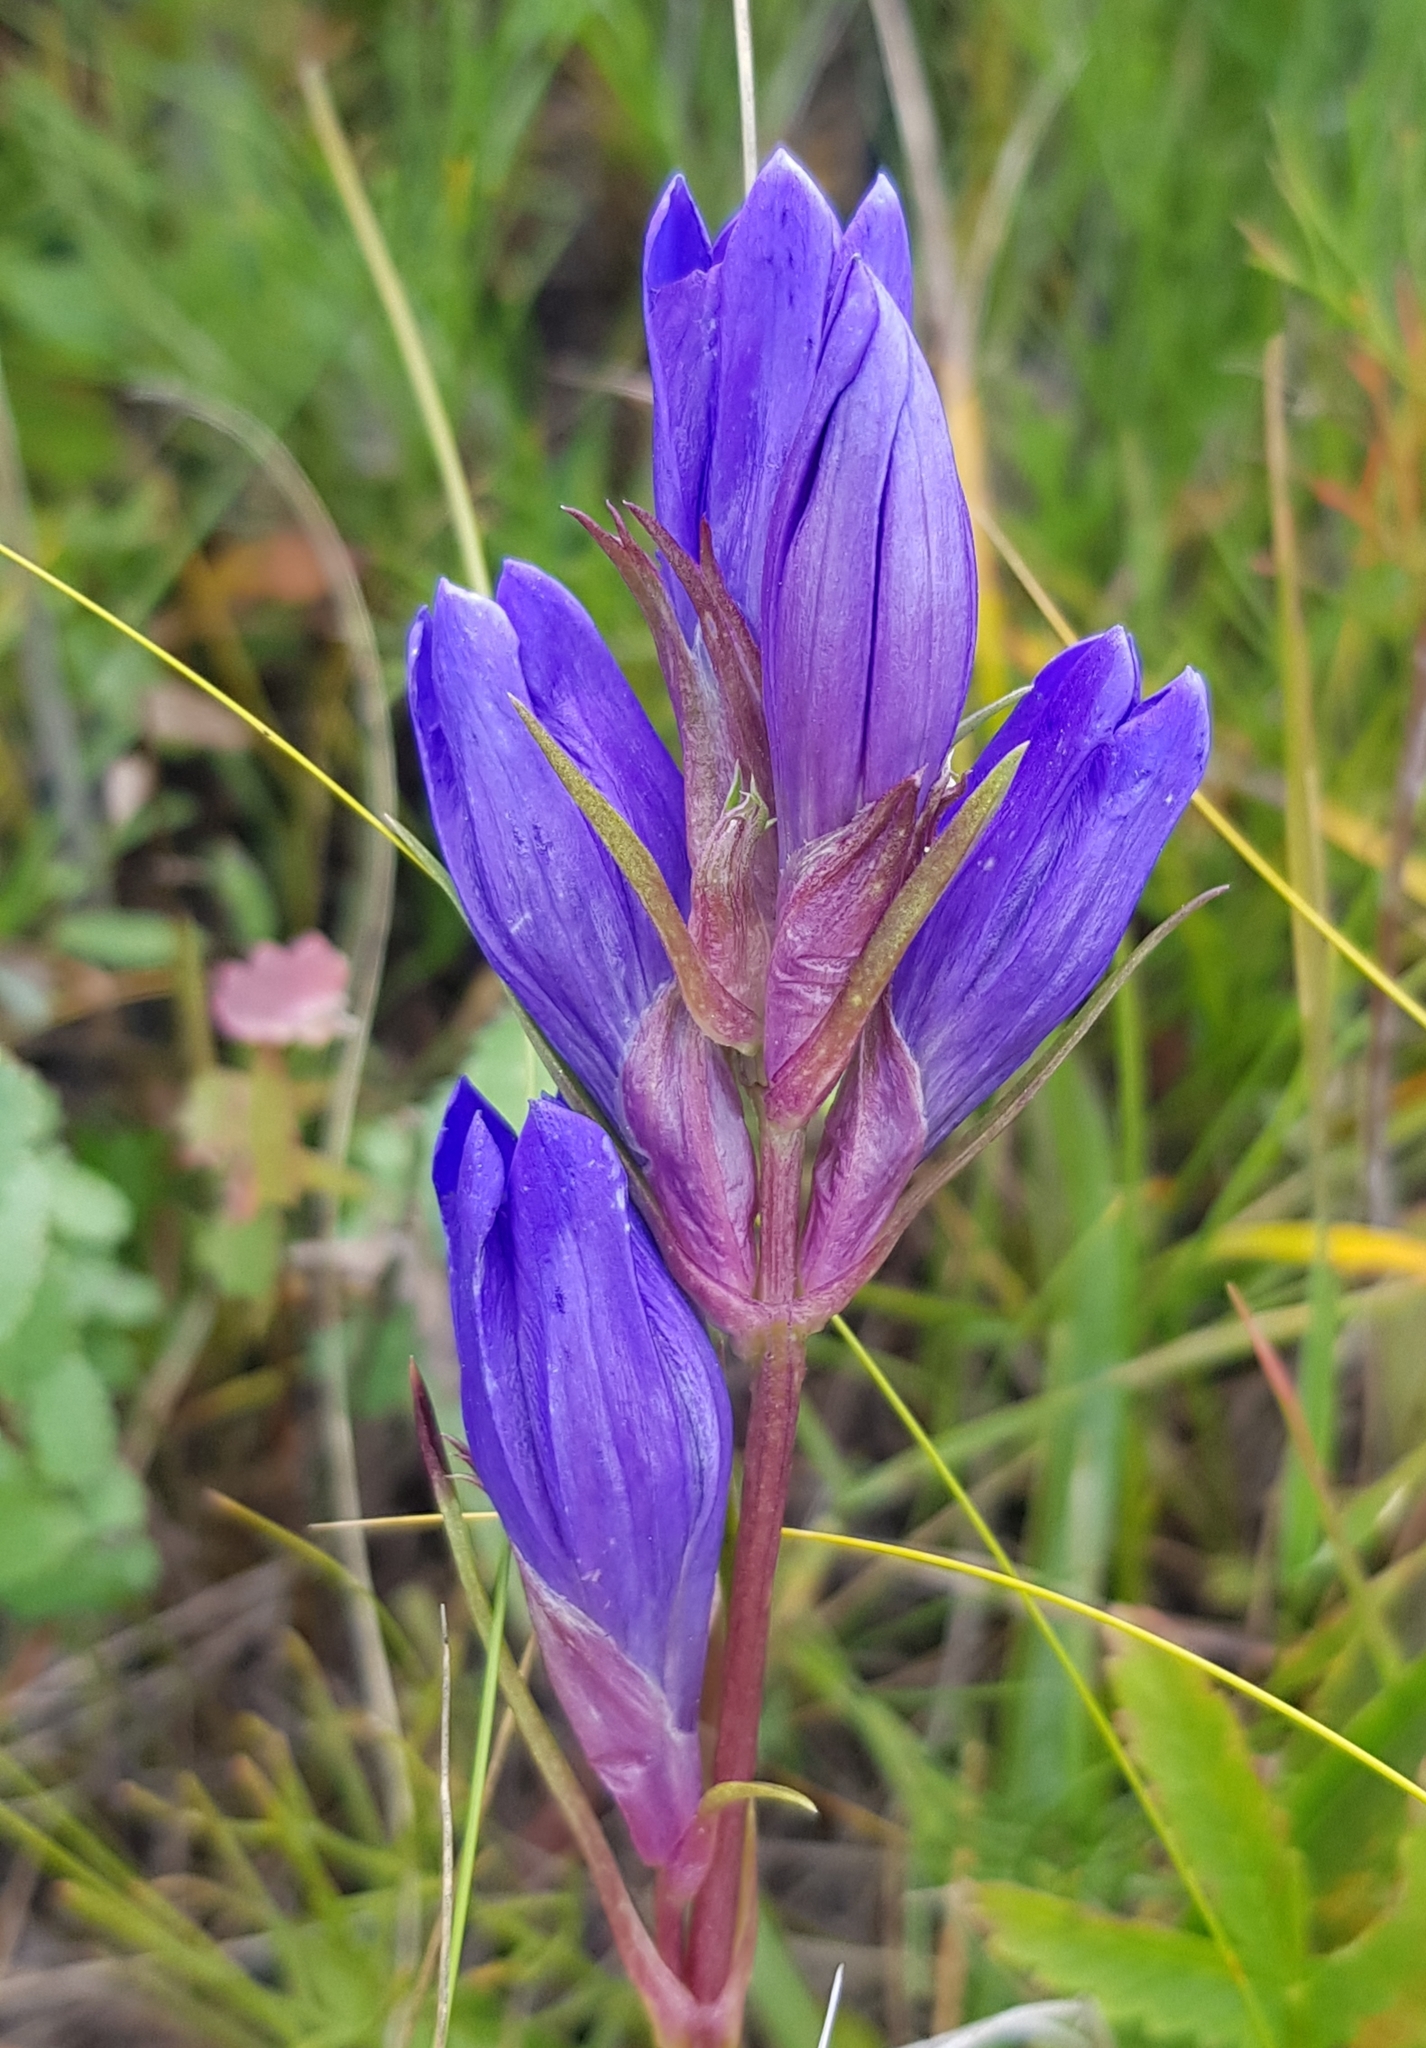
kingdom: Plantae
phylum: Tracheophyta
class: Magnoliopsida
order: Gentianales
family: Gentianaceae
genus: Gentiana
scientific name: Gentiana decumbens
